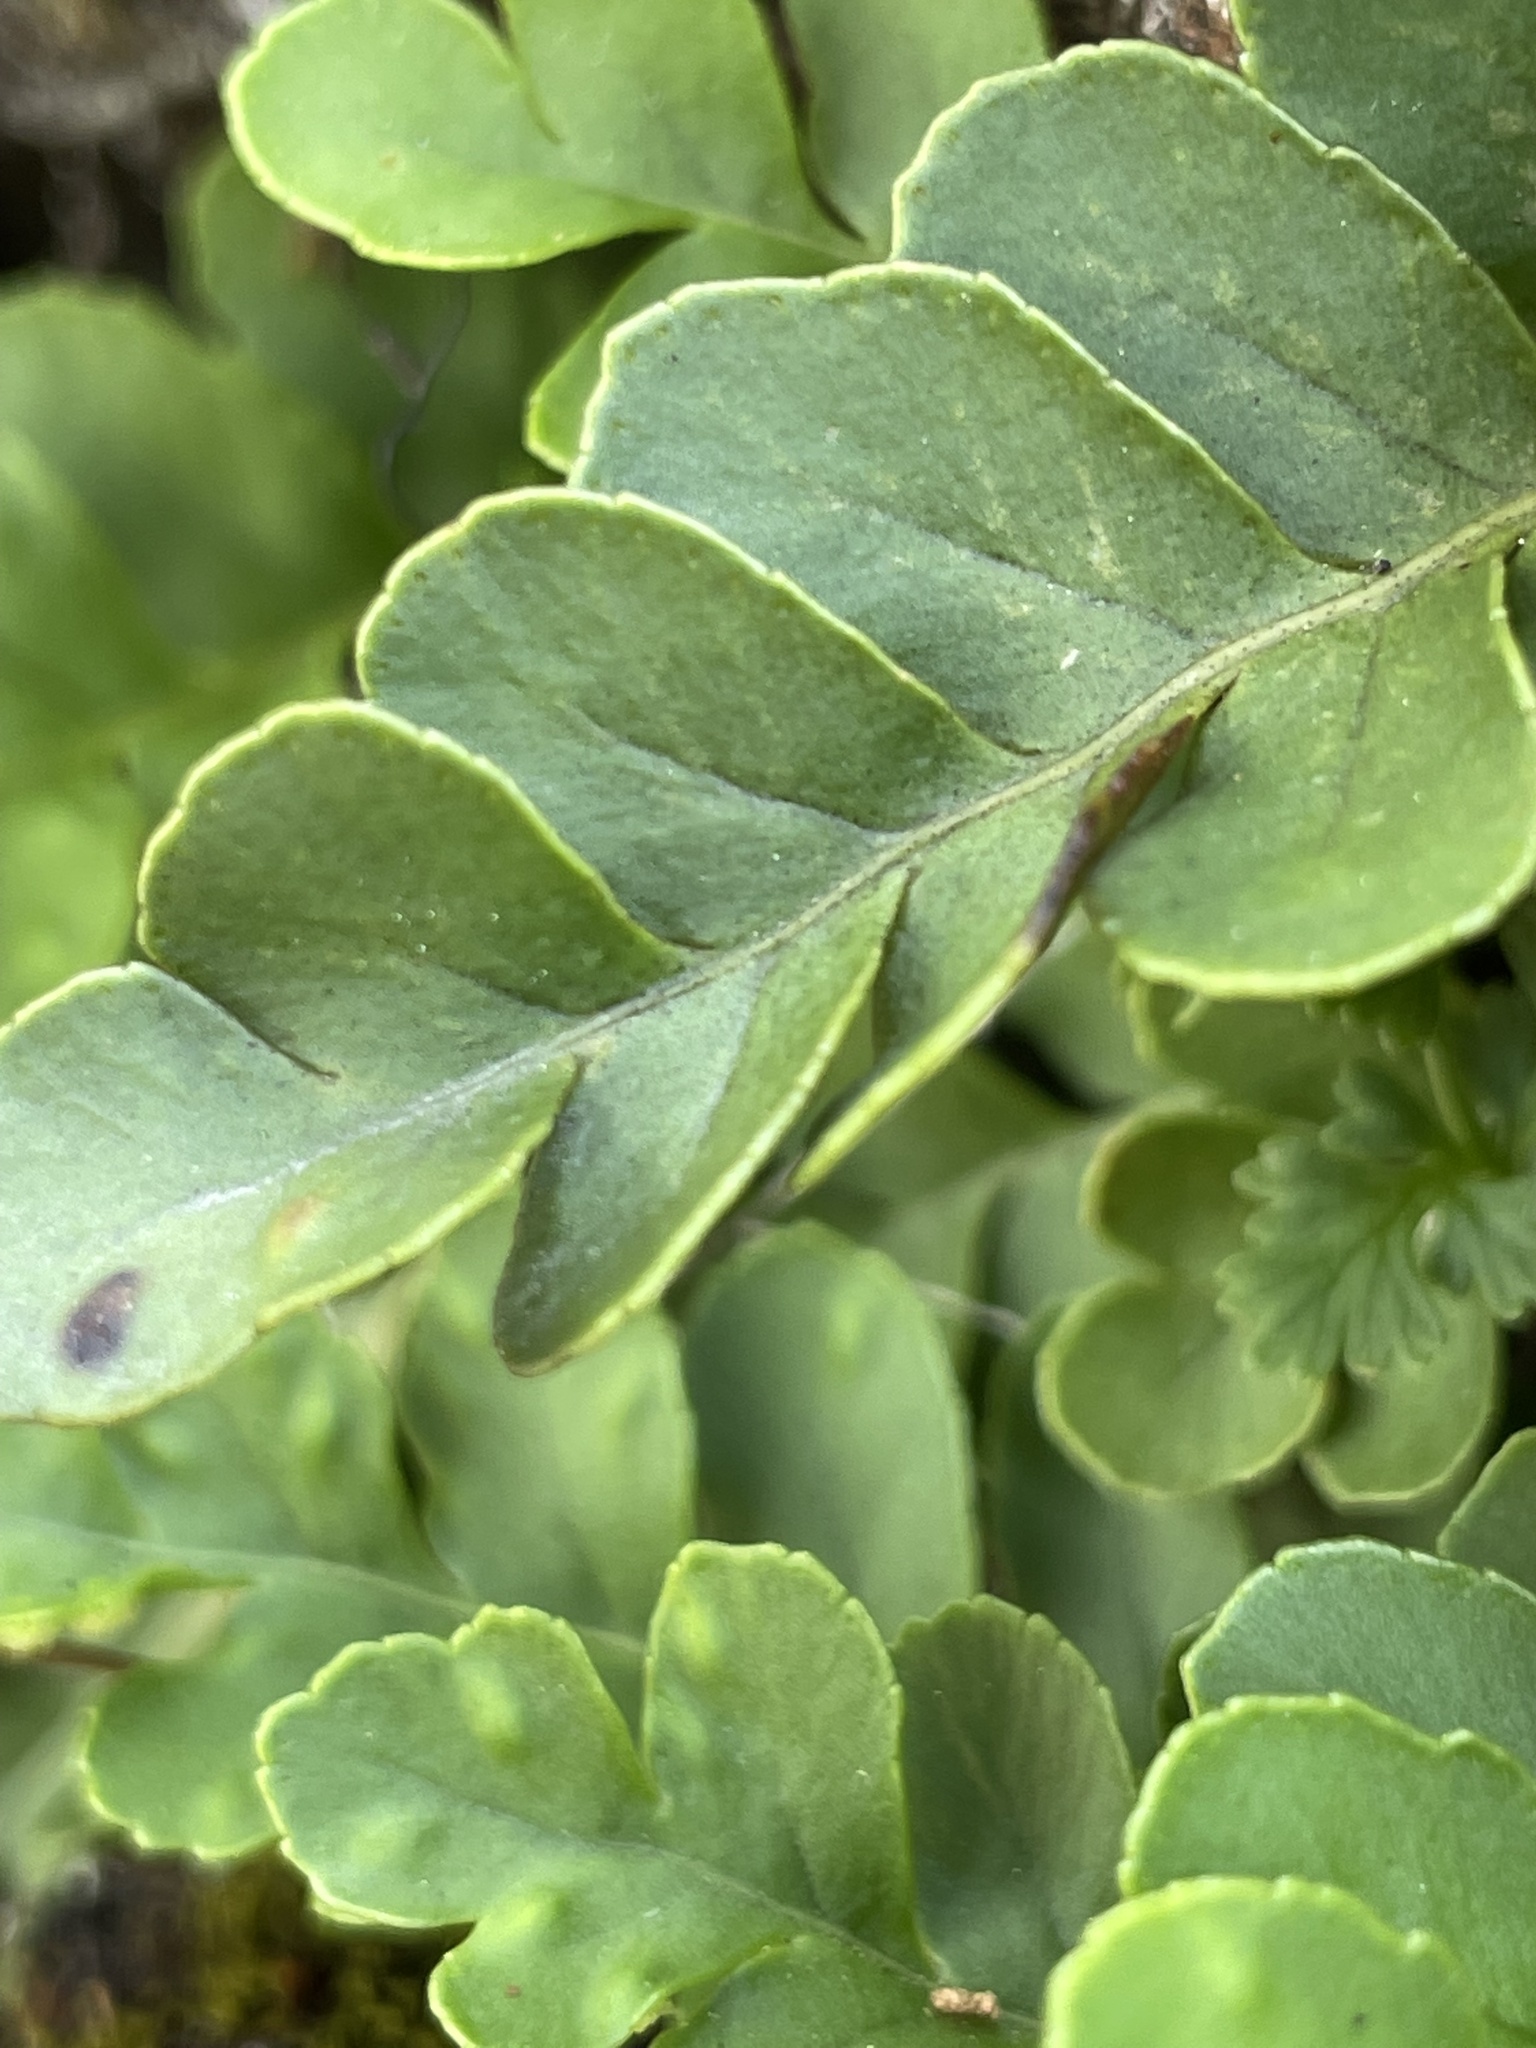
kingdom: Plantae
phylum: Tracheophyta
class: Polypodiopsida
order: Polypodiales
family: Polypodiaceae
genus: Polypodium
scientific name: Polypodium amorphum
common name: Pacific polypody
